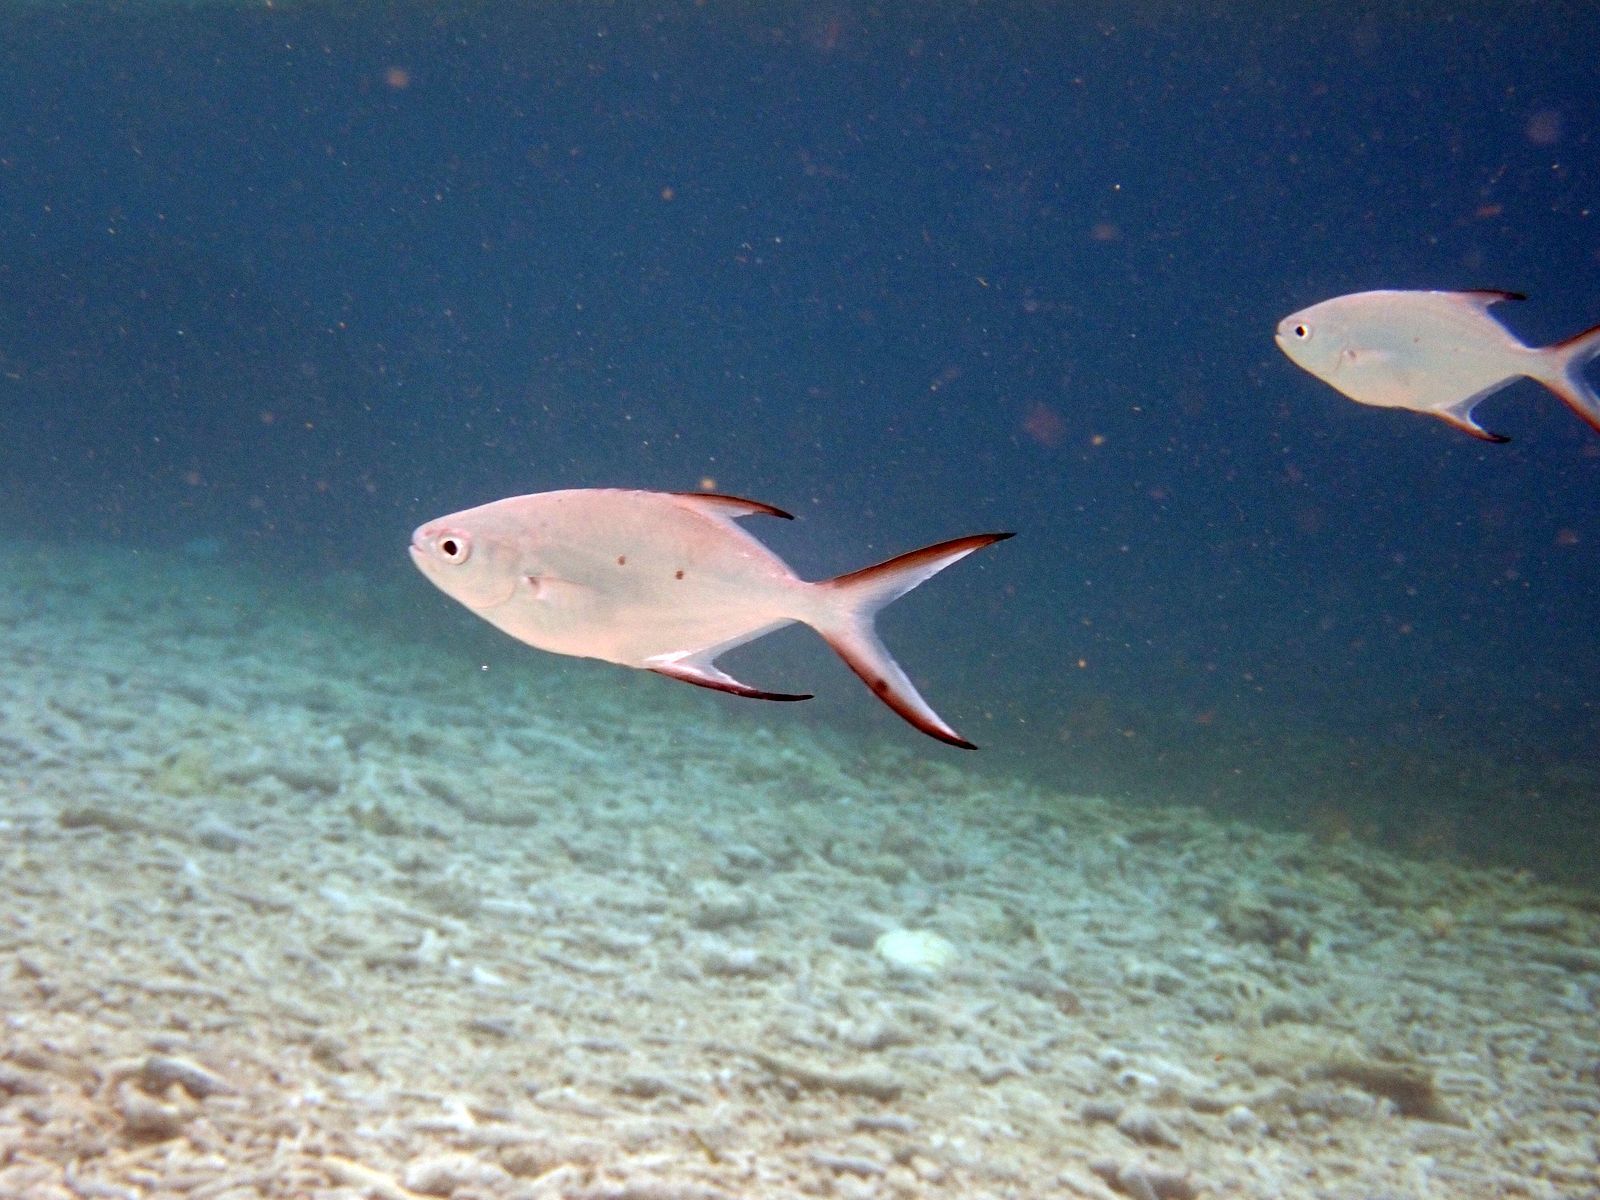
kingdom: Animalia
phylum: Chordata
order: Perciformes
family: Carangidae
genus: Trachinotus
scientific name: Trachinotus baillonii
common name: Smallspotted dart
